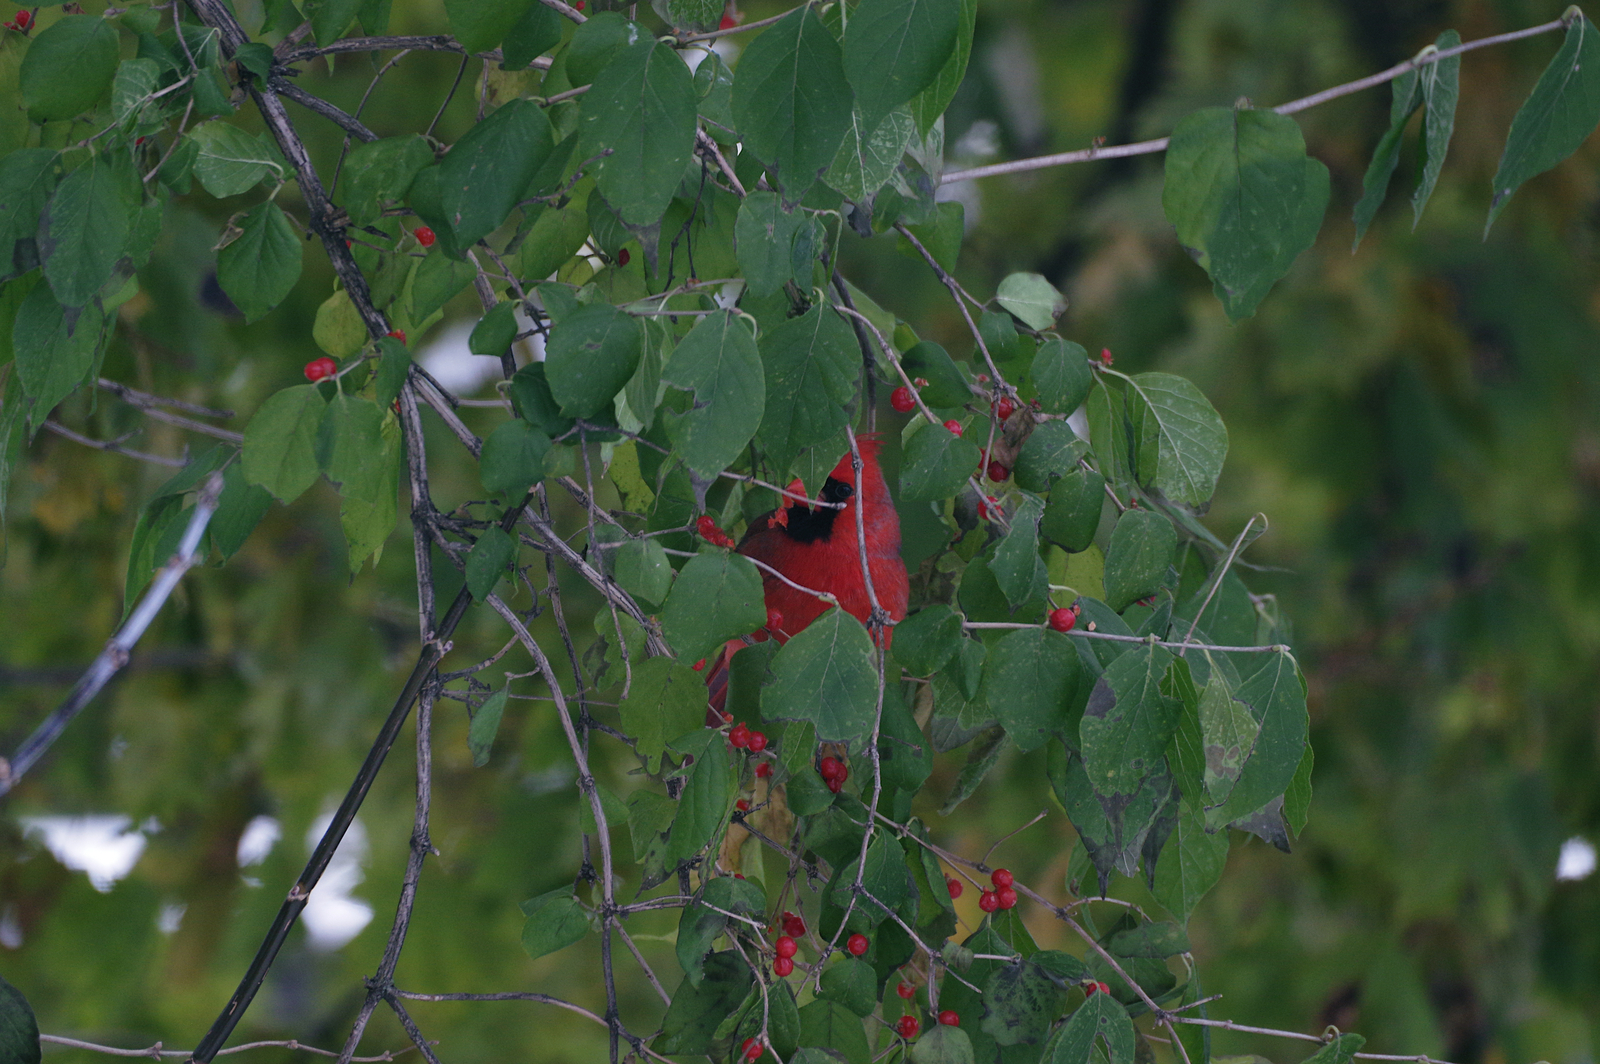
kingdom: Animalia
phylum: Chordata
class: Aves
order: Passeriformes
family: Cardinalidae
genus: Cardinalis
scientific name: Cardinalis cardinalis
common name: Northern cardinal
